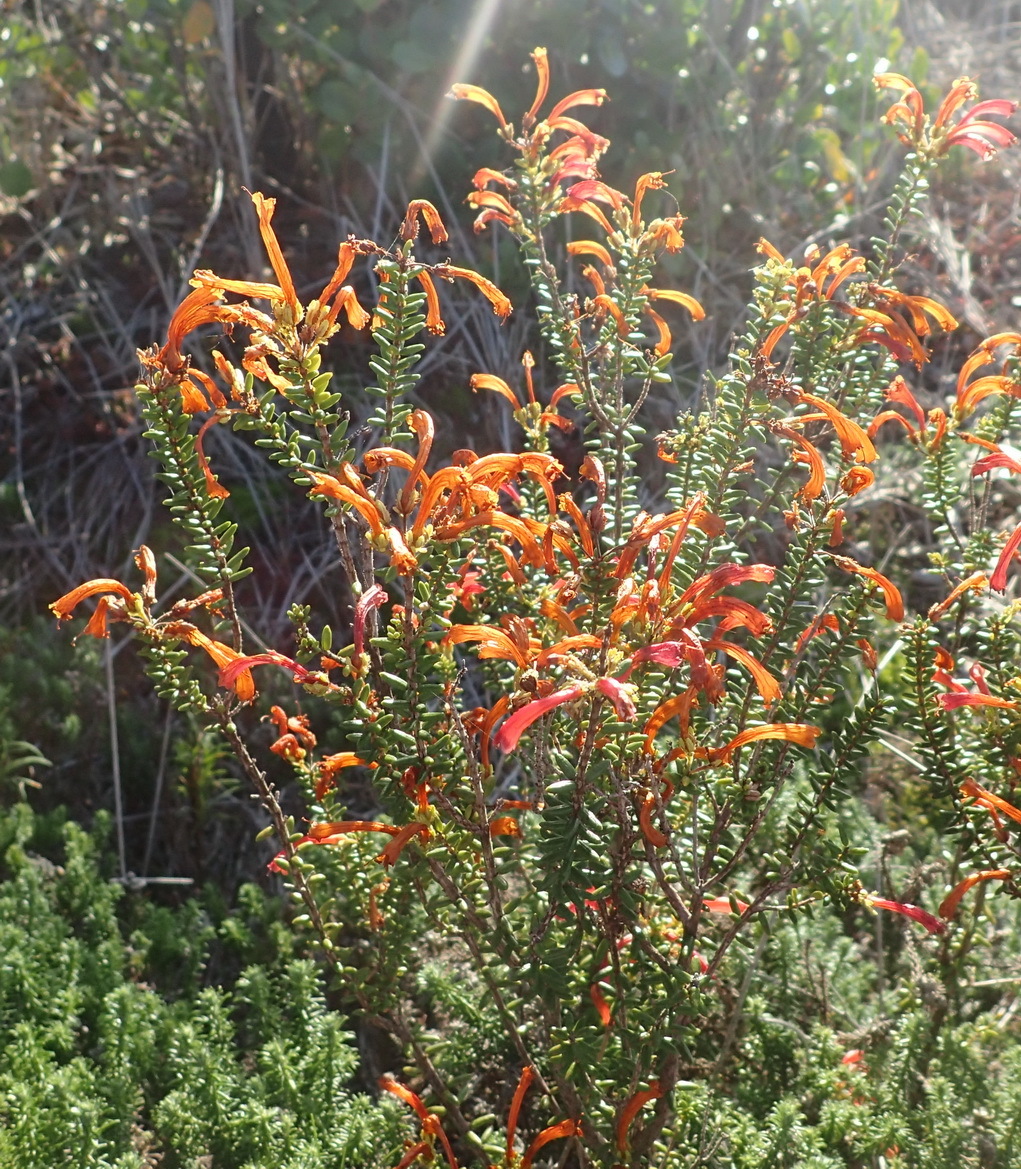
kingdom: Plantae
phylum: Tracheophyta
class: Magnoliopsida
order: Ericales
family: Ericaceae
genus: Erica
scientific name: Erica glandulosa
